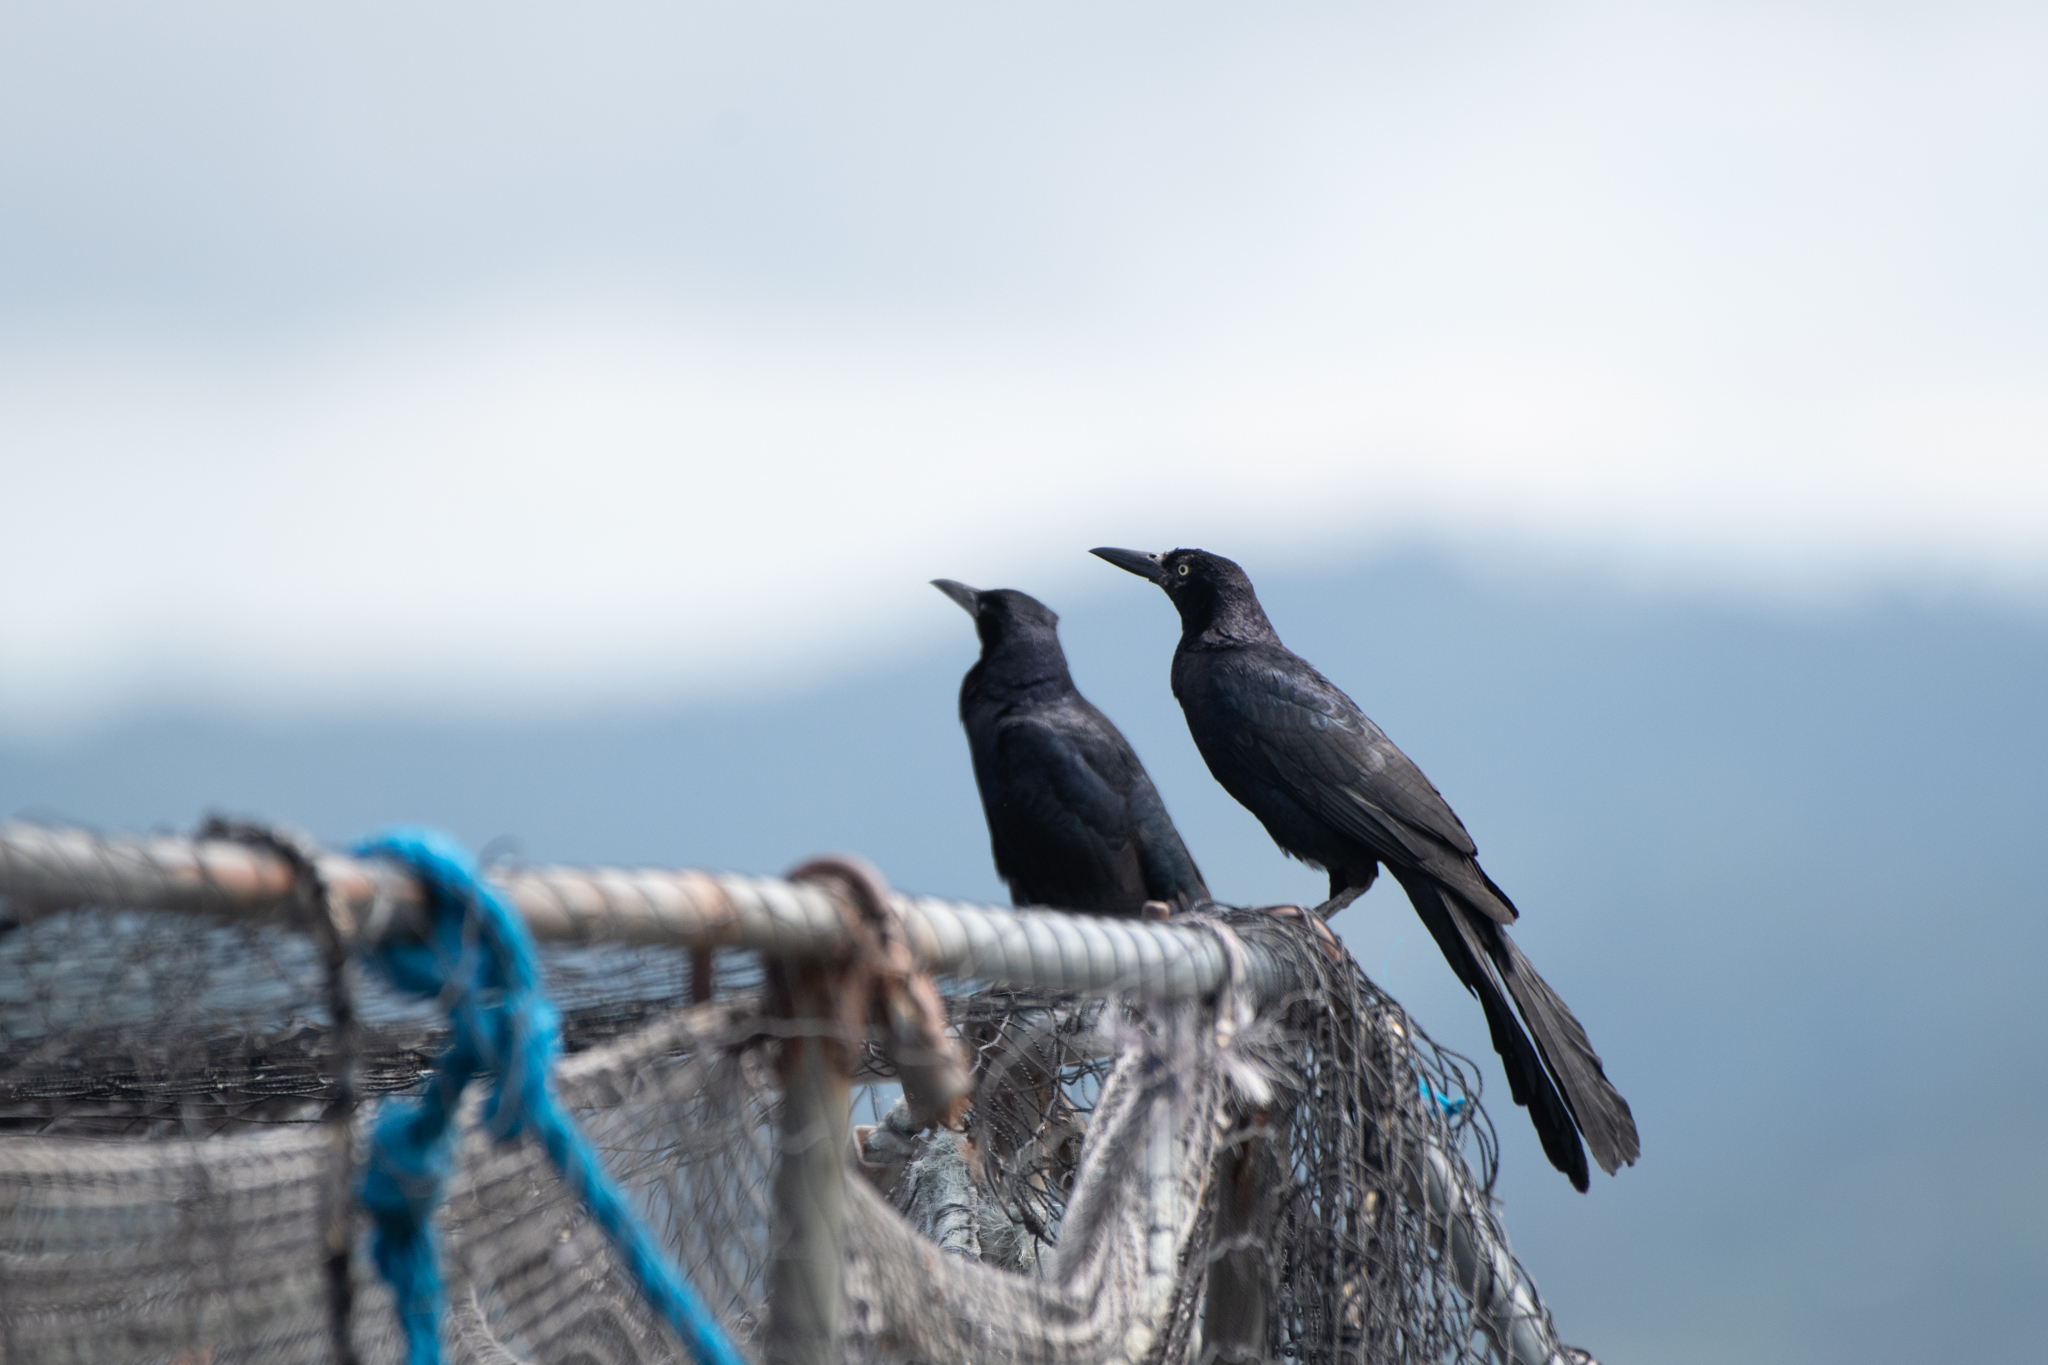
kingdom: Animalia
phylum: Chordata
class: Aves
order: Passeriformes
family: Icteridae
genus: Quiscalus
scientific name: Quiscalus mexicanus
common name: Great-tailed grackle
